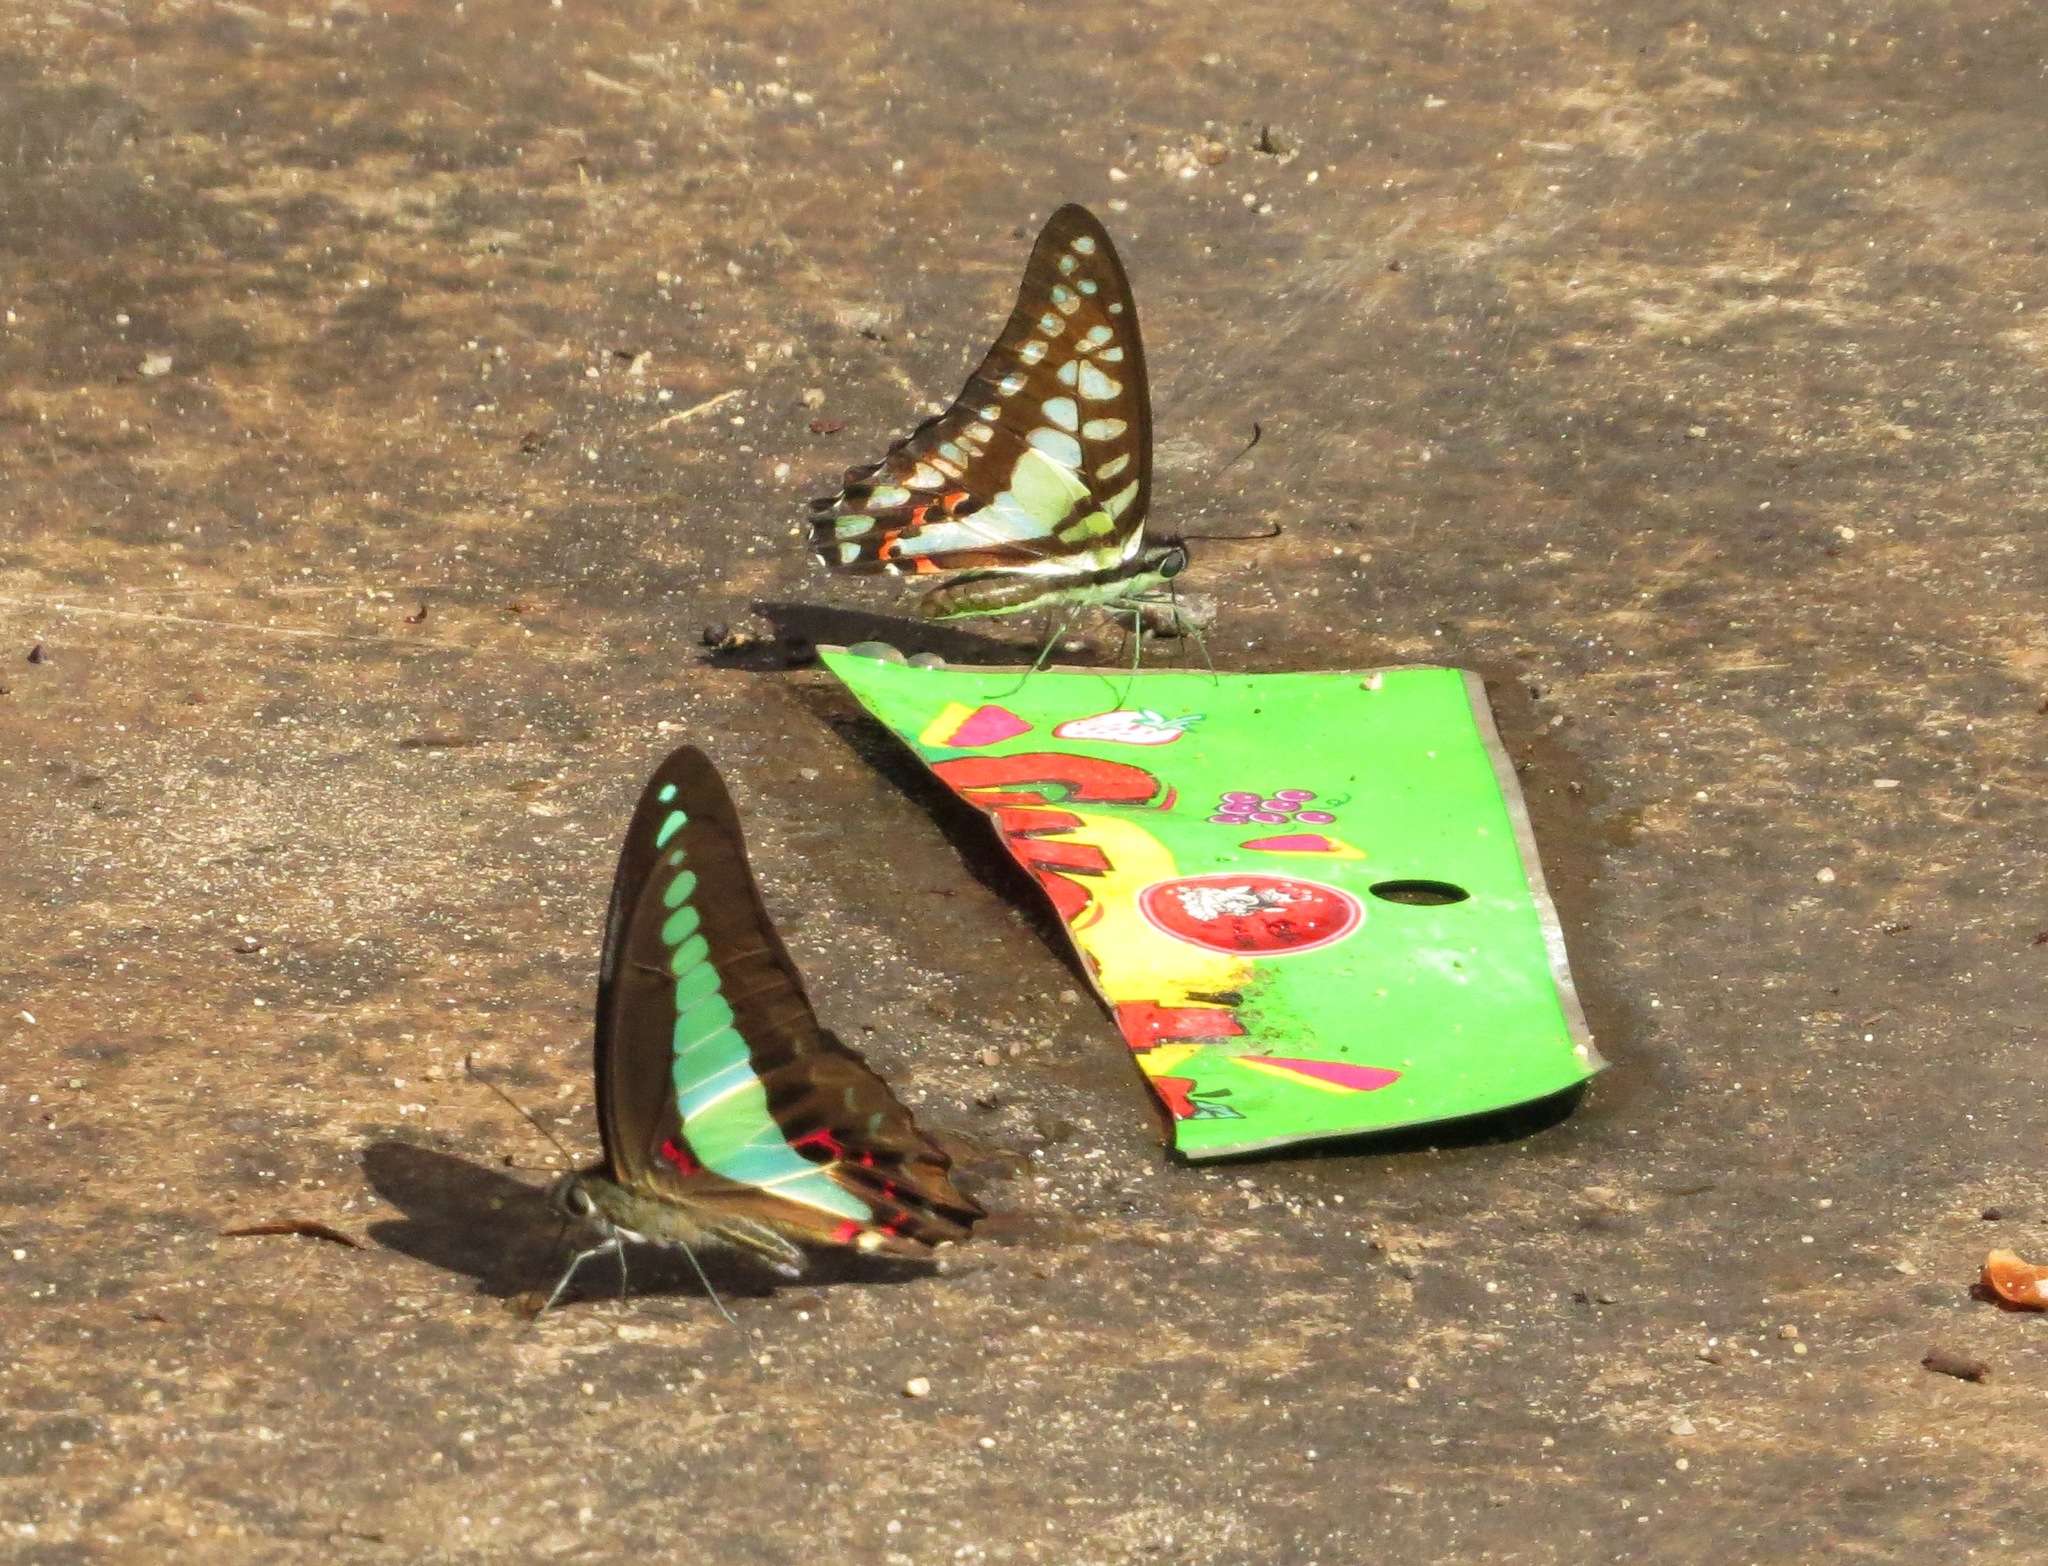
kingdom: Fungi
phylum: Ascomycota
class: Sordariomycetes
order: Microascales
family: Microascaceae
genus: Graphium
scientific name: Graphium sarpedon
